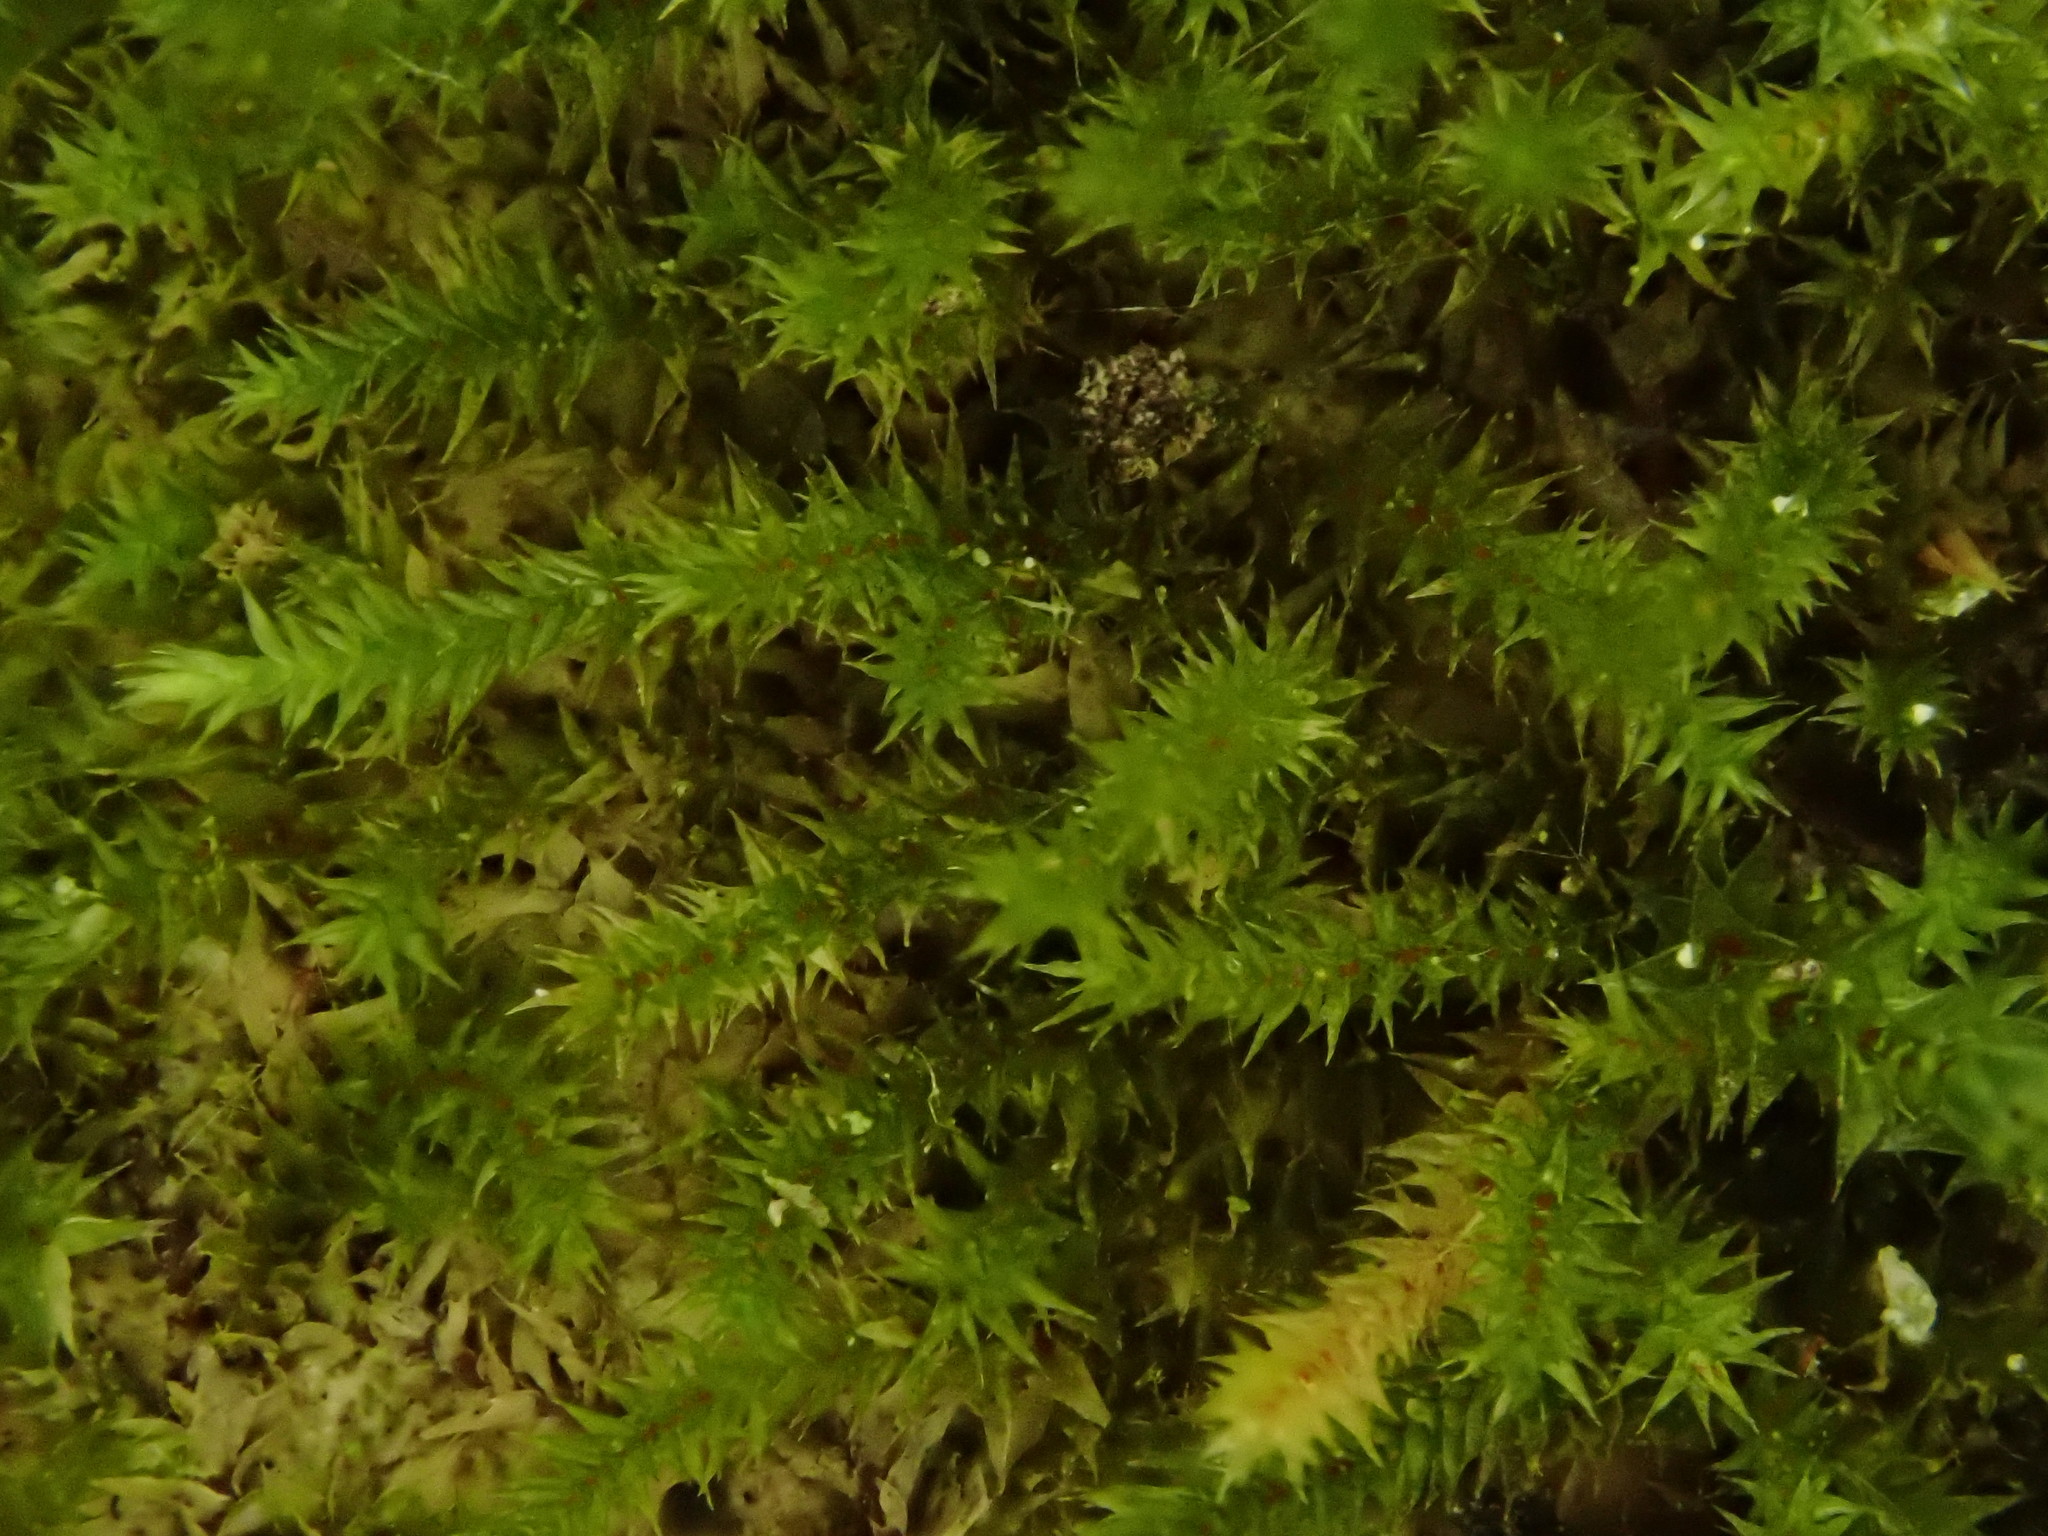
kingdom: Plantae
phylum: Bryophyta
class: Bryopsida
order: Hypnales
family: Cryphaeaceae
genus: Cryphaea
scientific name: Cryphaea heteromalla
